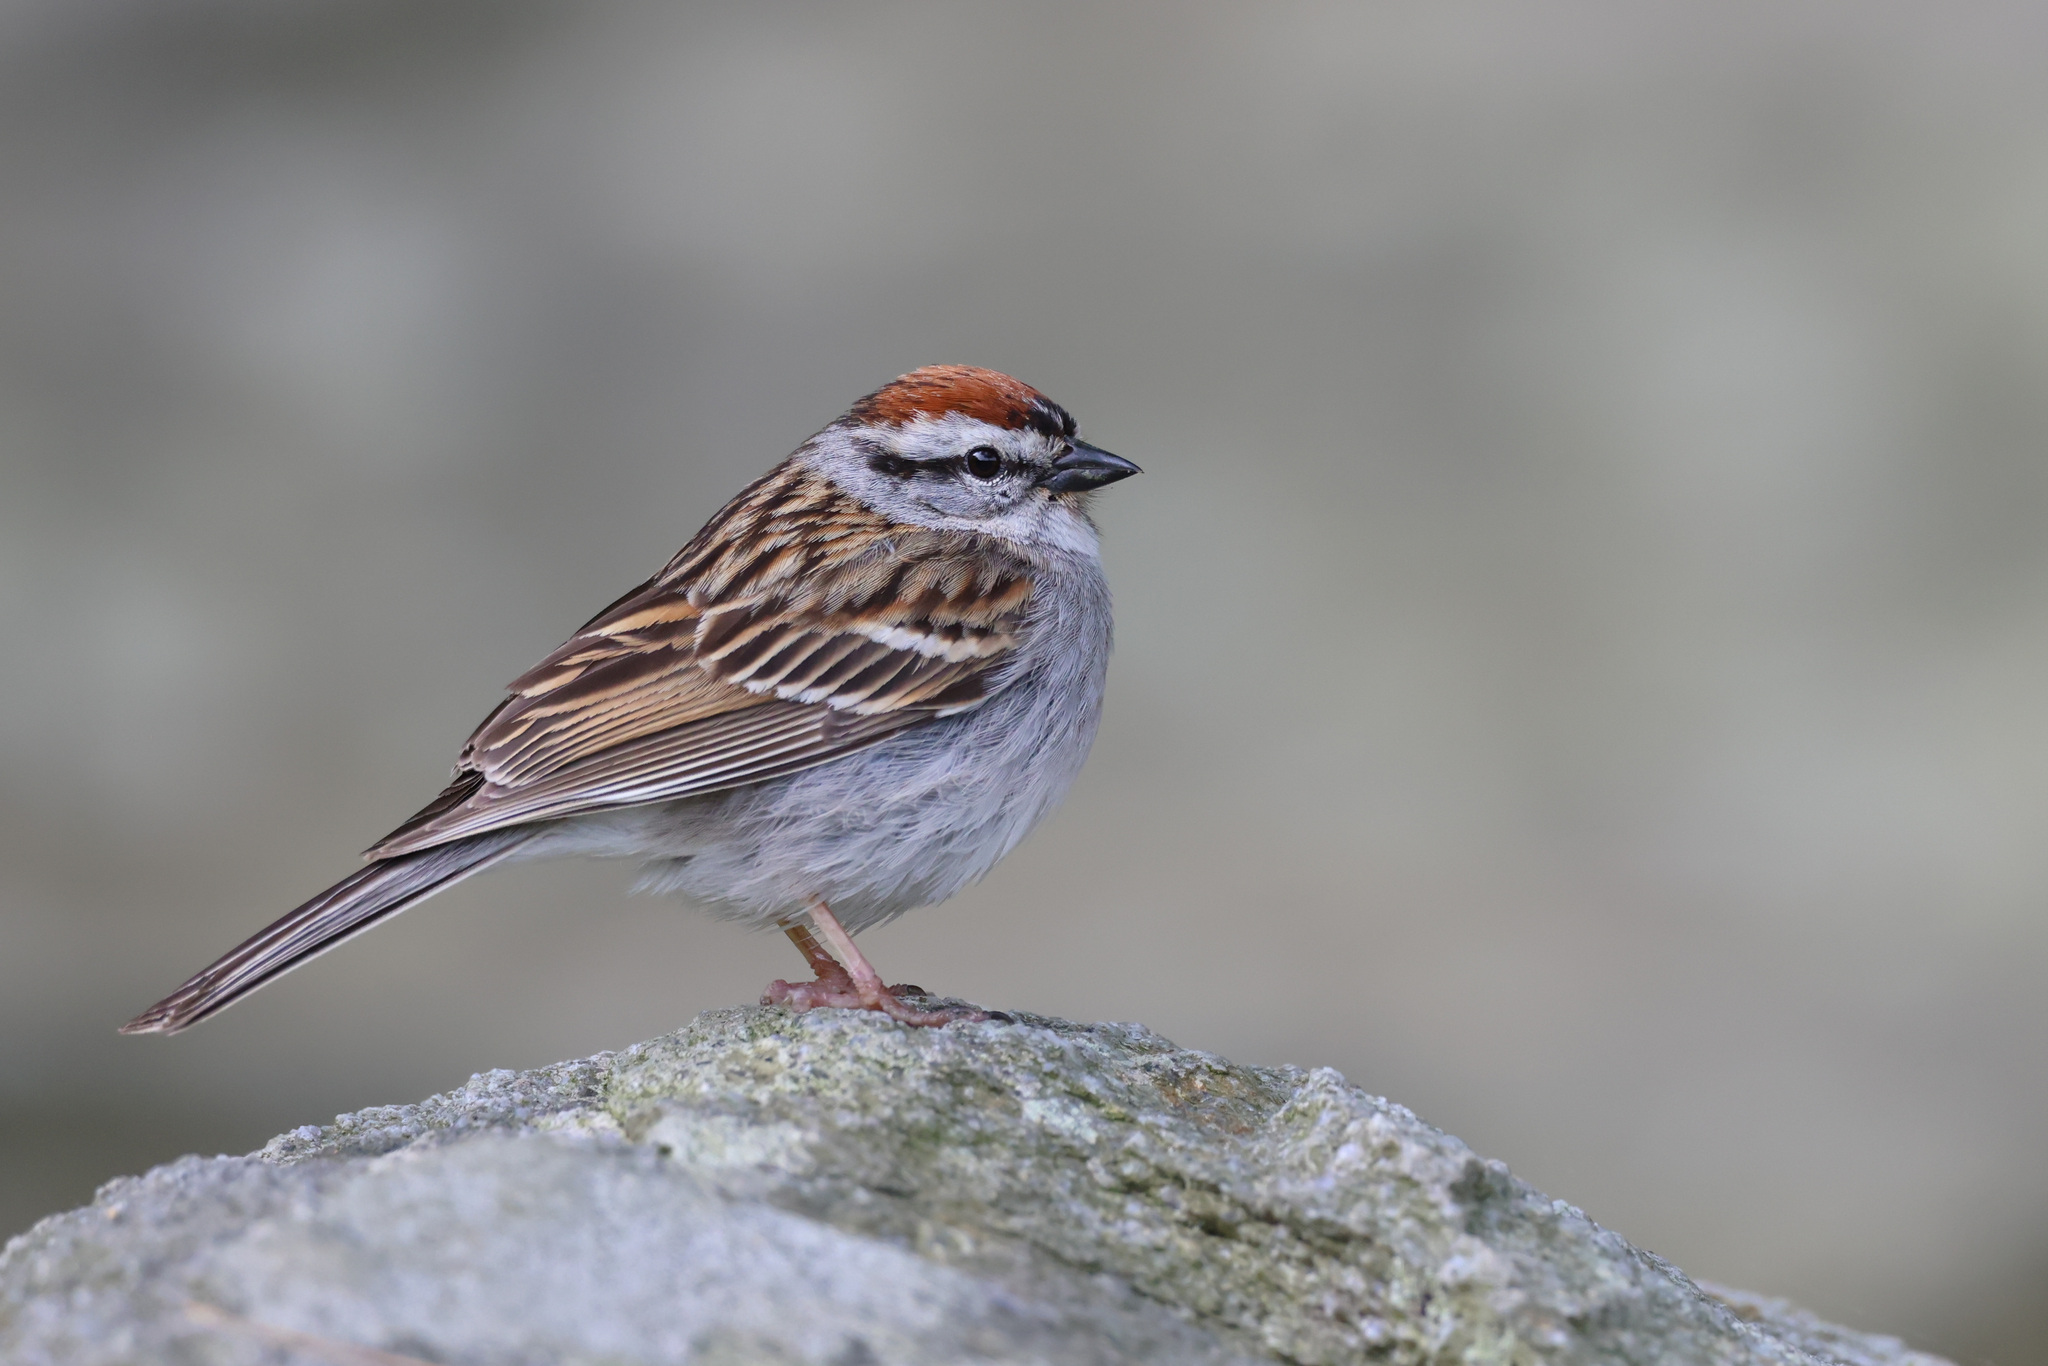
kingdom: Animalia
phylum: Chordata
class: Aves
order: Passeriformes
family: Passerellidae
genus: Spizella
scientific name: Spizella passerina
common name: Chipping sparrow
